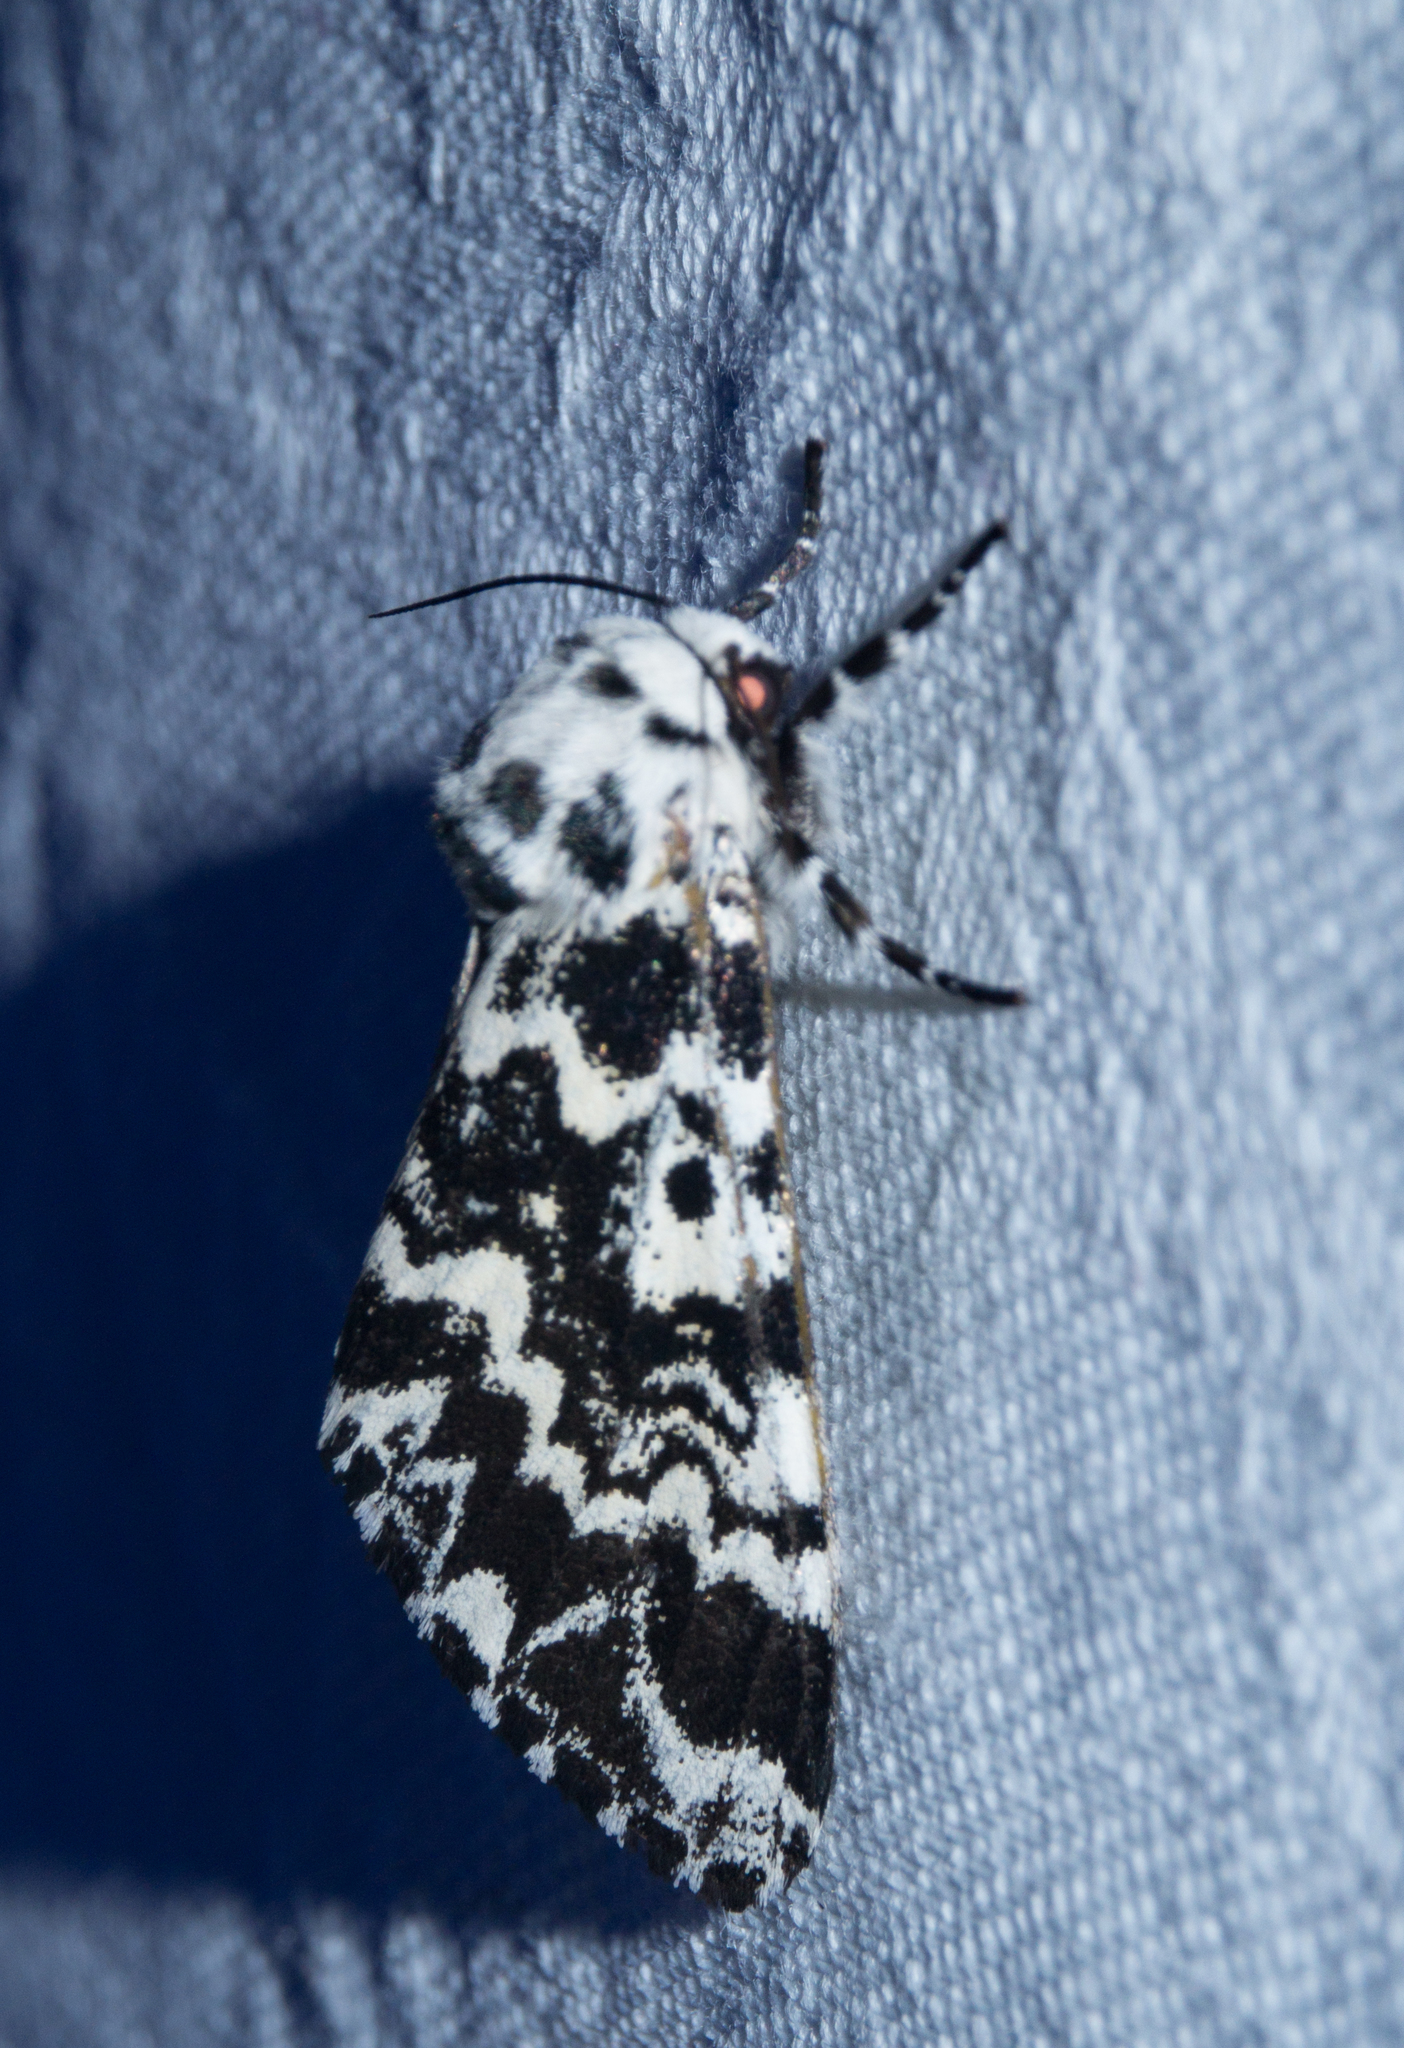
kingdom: Animalia
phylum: Arthropoda
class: Insecta
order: Lepidoptera
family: Noctuidae
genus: Panthea
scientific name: Panthea coenobita
